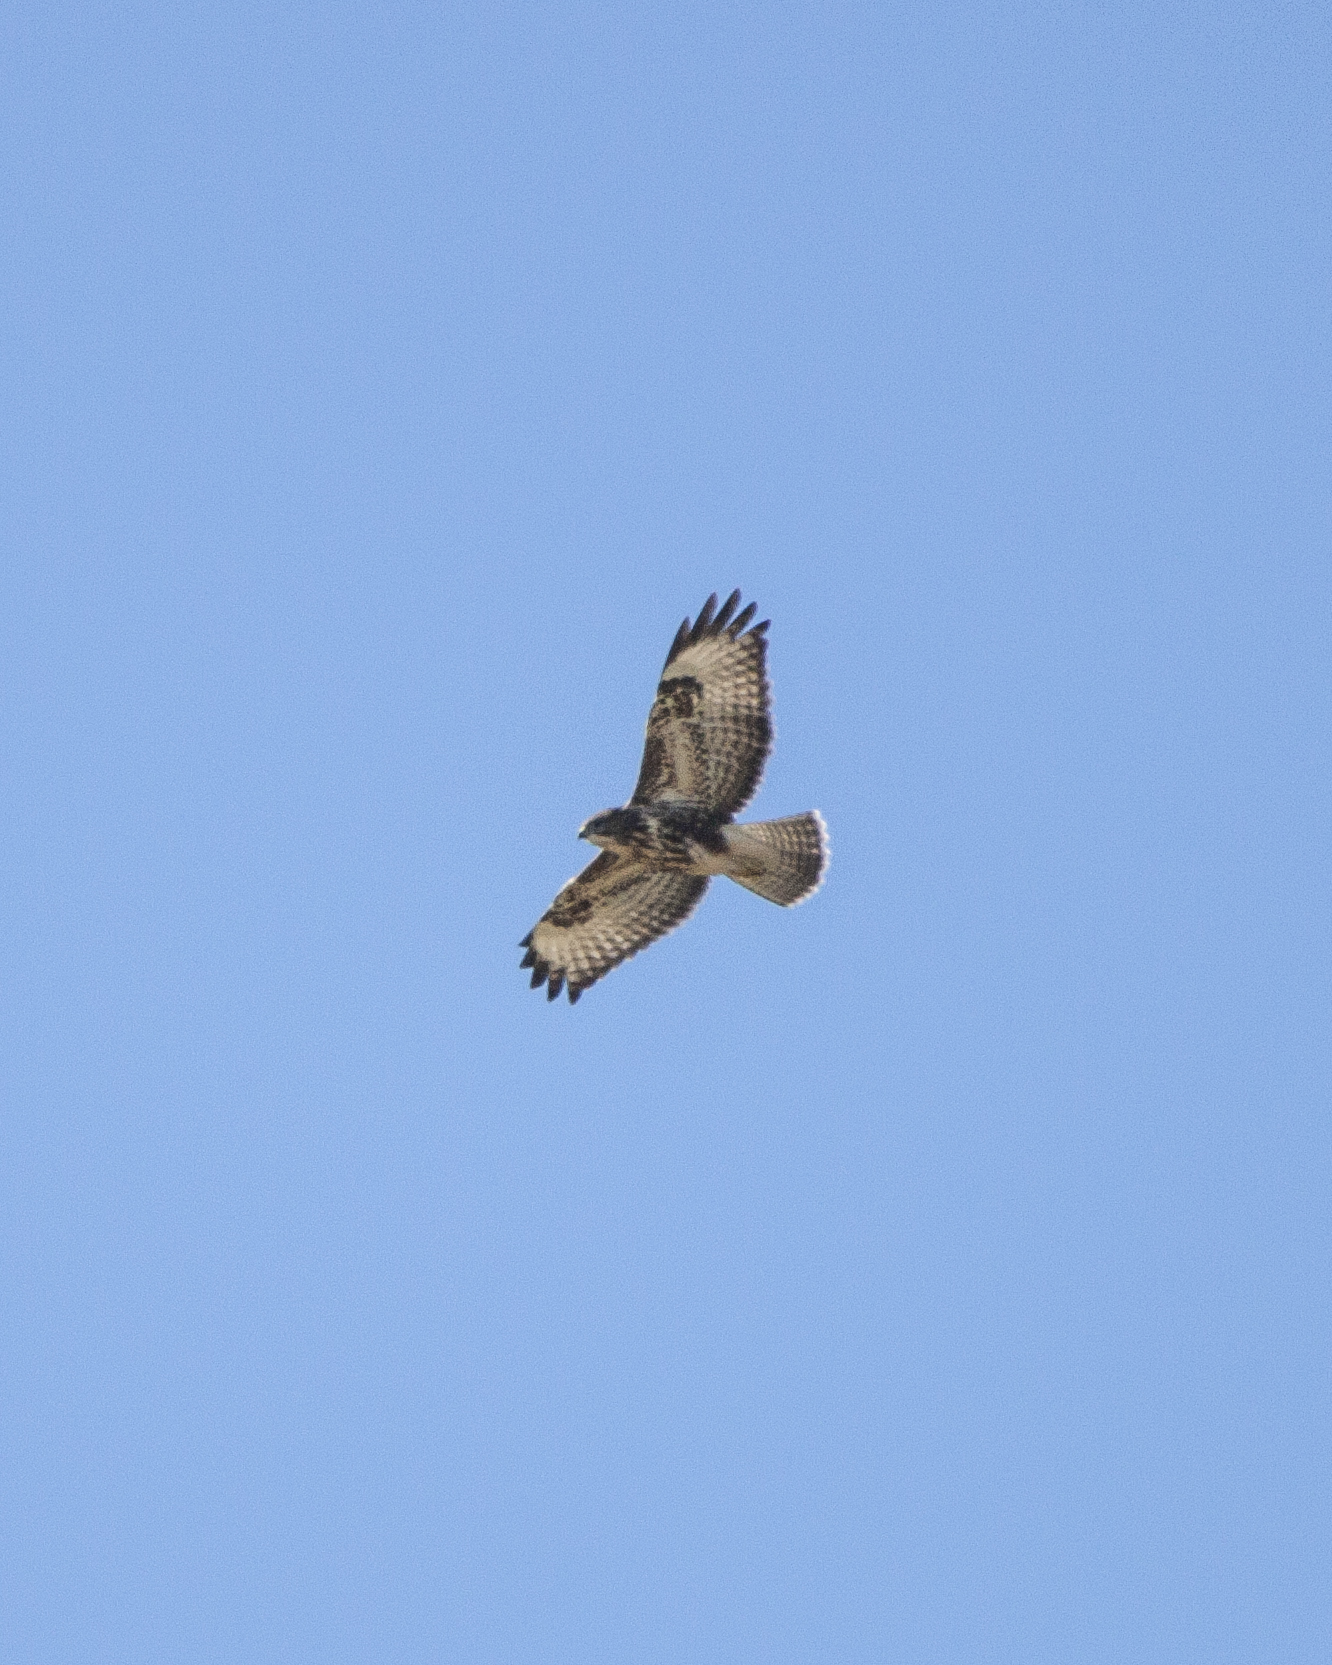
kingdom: Animalia
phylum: Chordata
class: Aves
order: Accipitriformes
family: Accipitridae
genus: Buteo
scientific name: Buteo buteo
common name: Common buzzard
